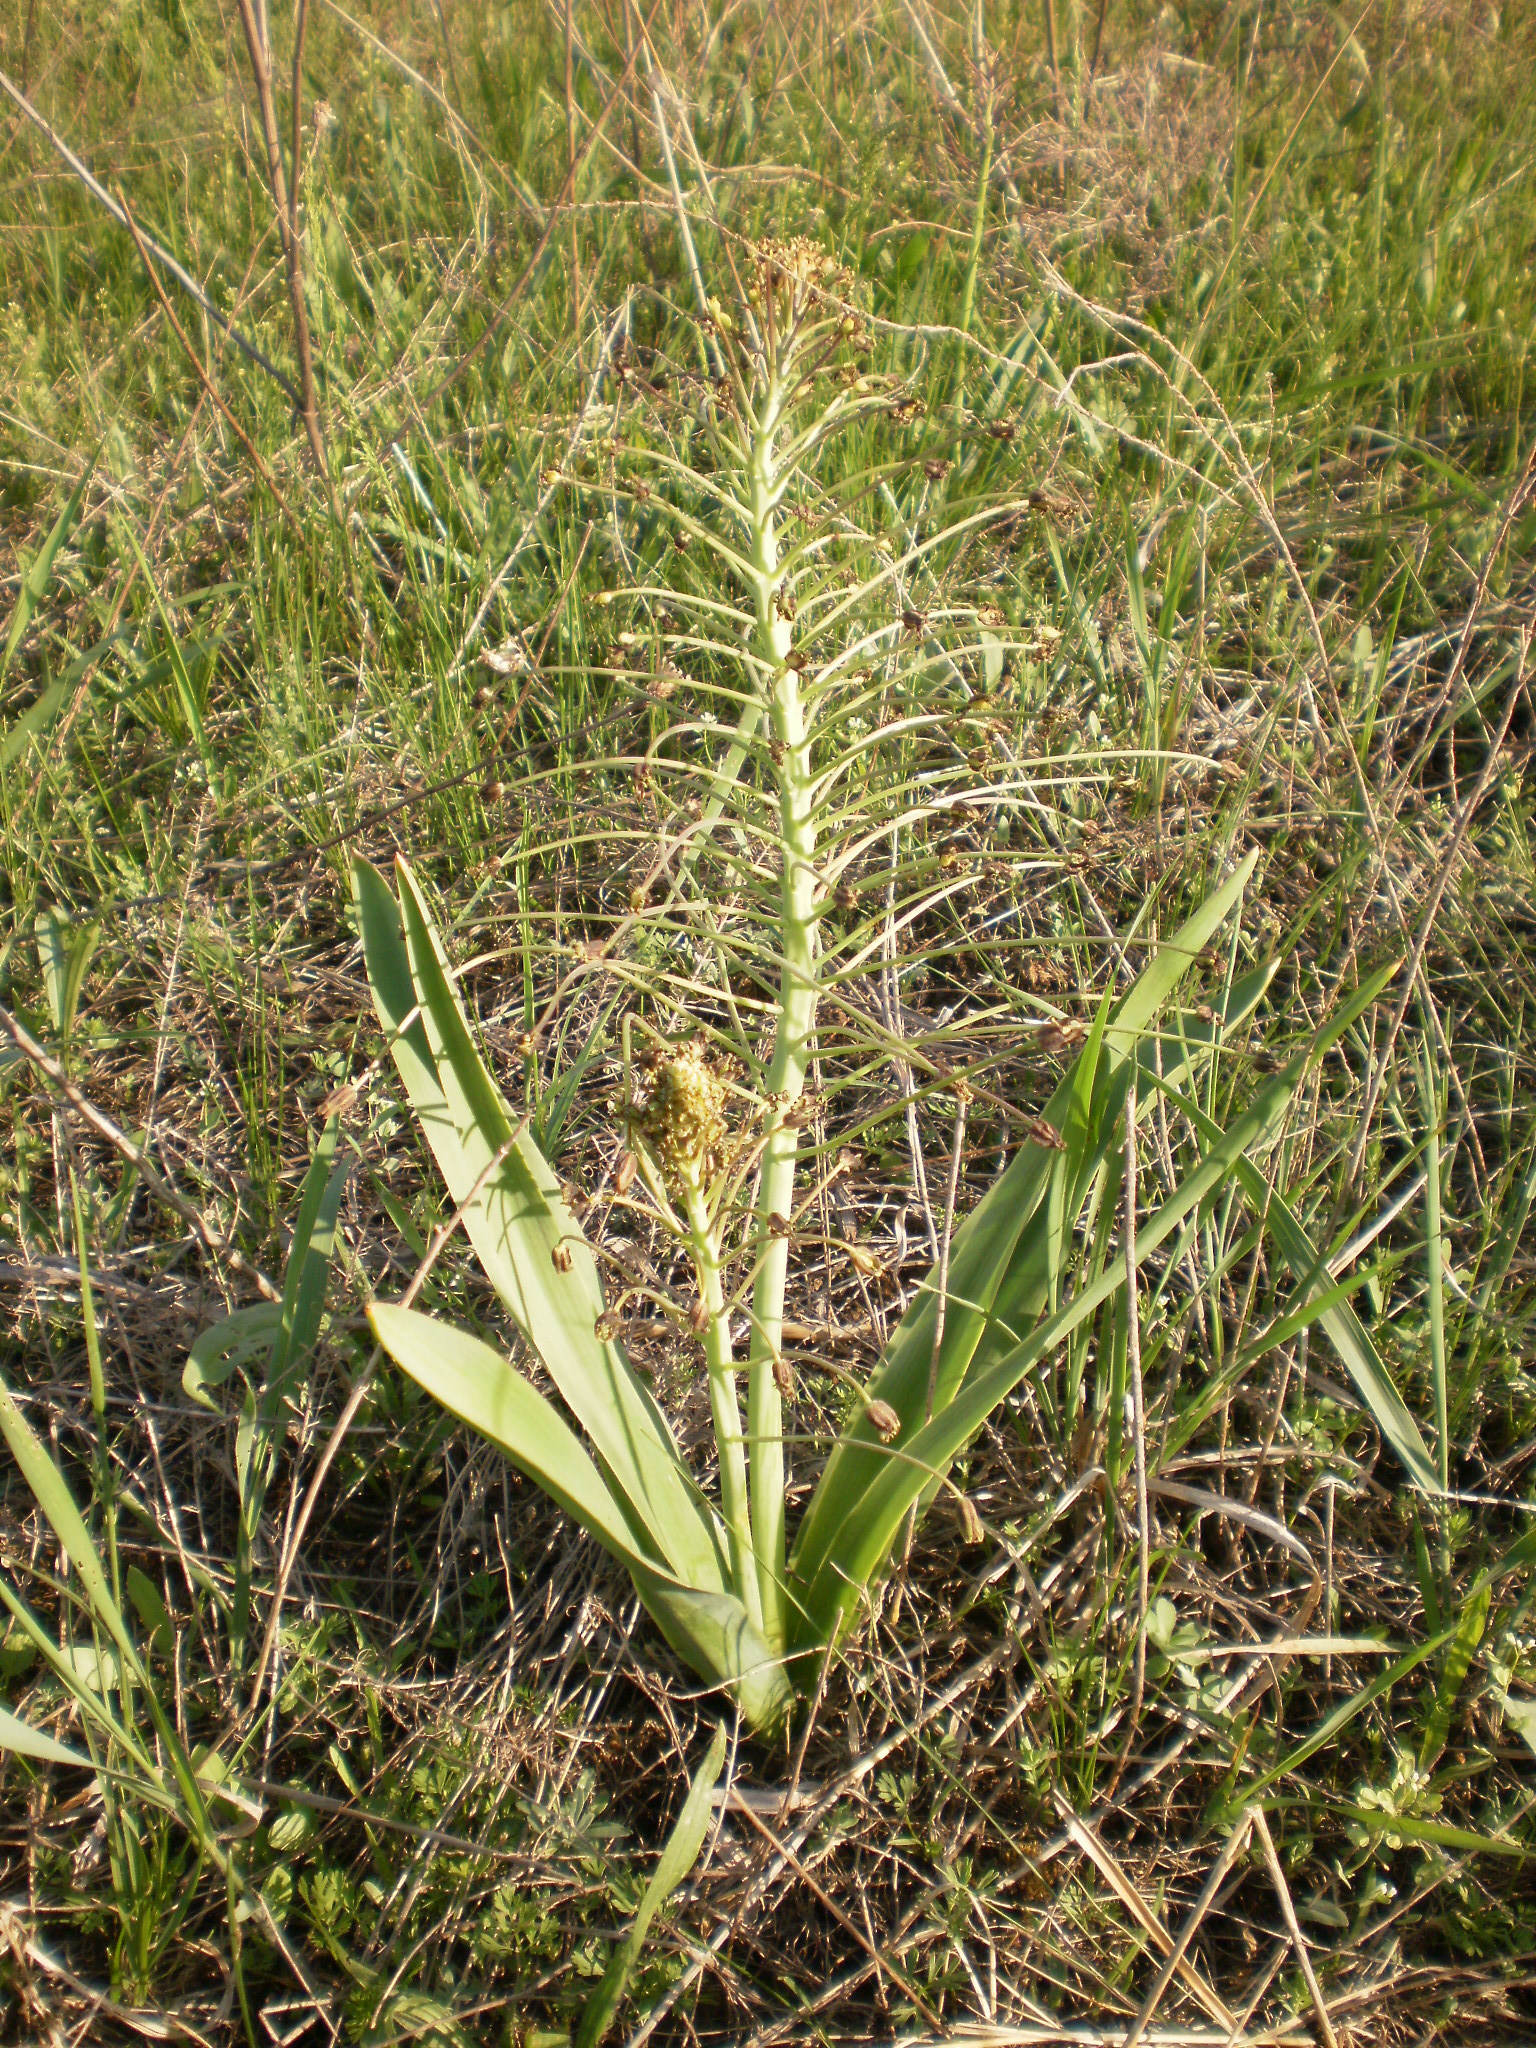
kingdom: Plantae
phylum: Tracheophyta
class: Liliopsida
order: Asparagales
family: Asparagaceae
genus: Bellevalia
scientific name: Bellevalia speciosa
